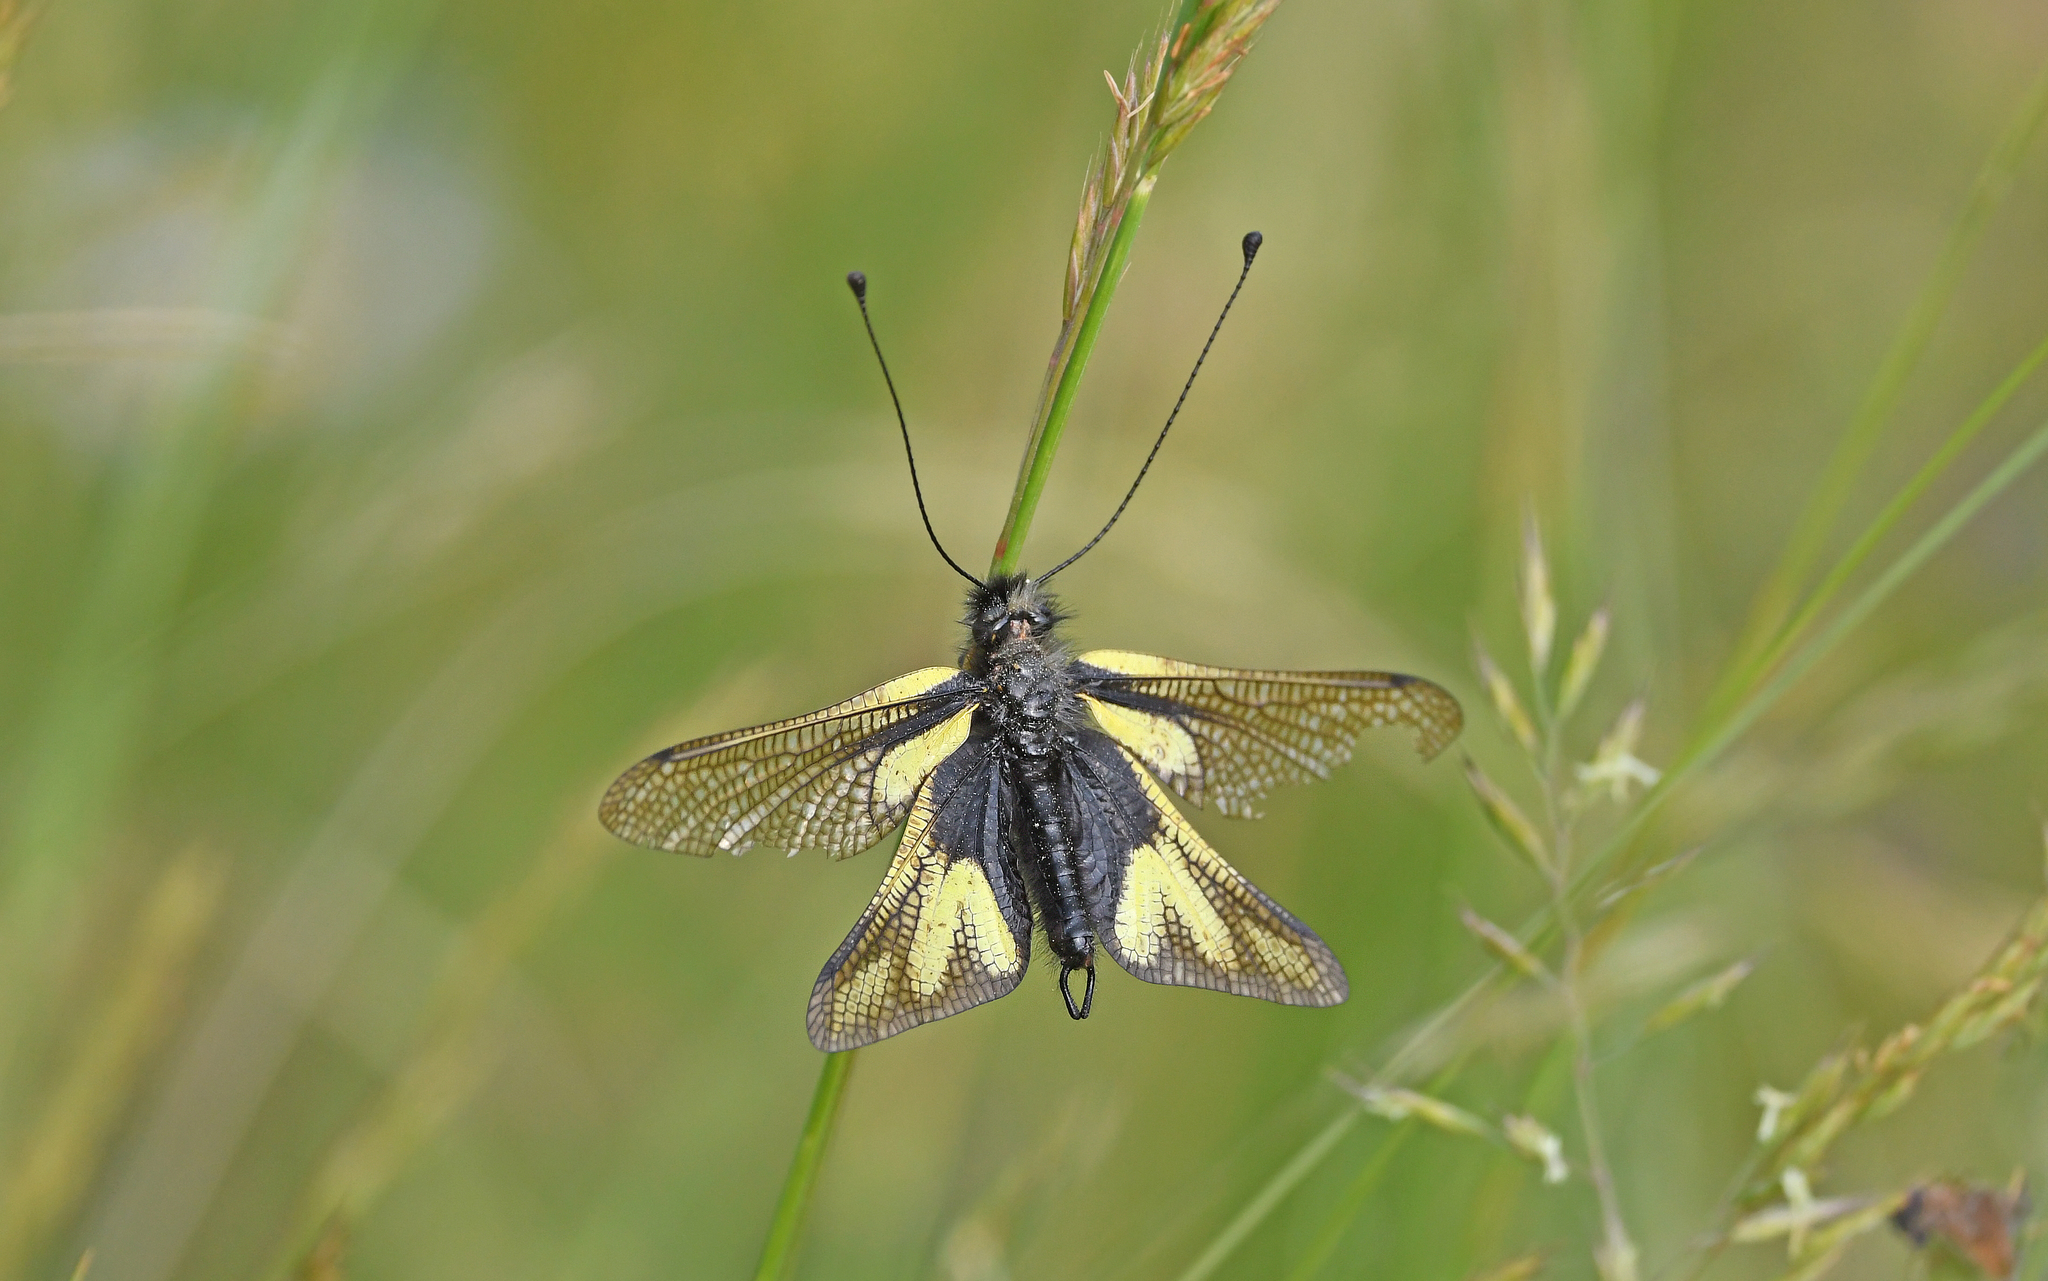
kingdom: Animalia
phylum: Arthropoda
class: Insecta
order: Neuroptera
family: Ascalaphidae
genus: Libelloides
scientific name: Libelloides coccajus
